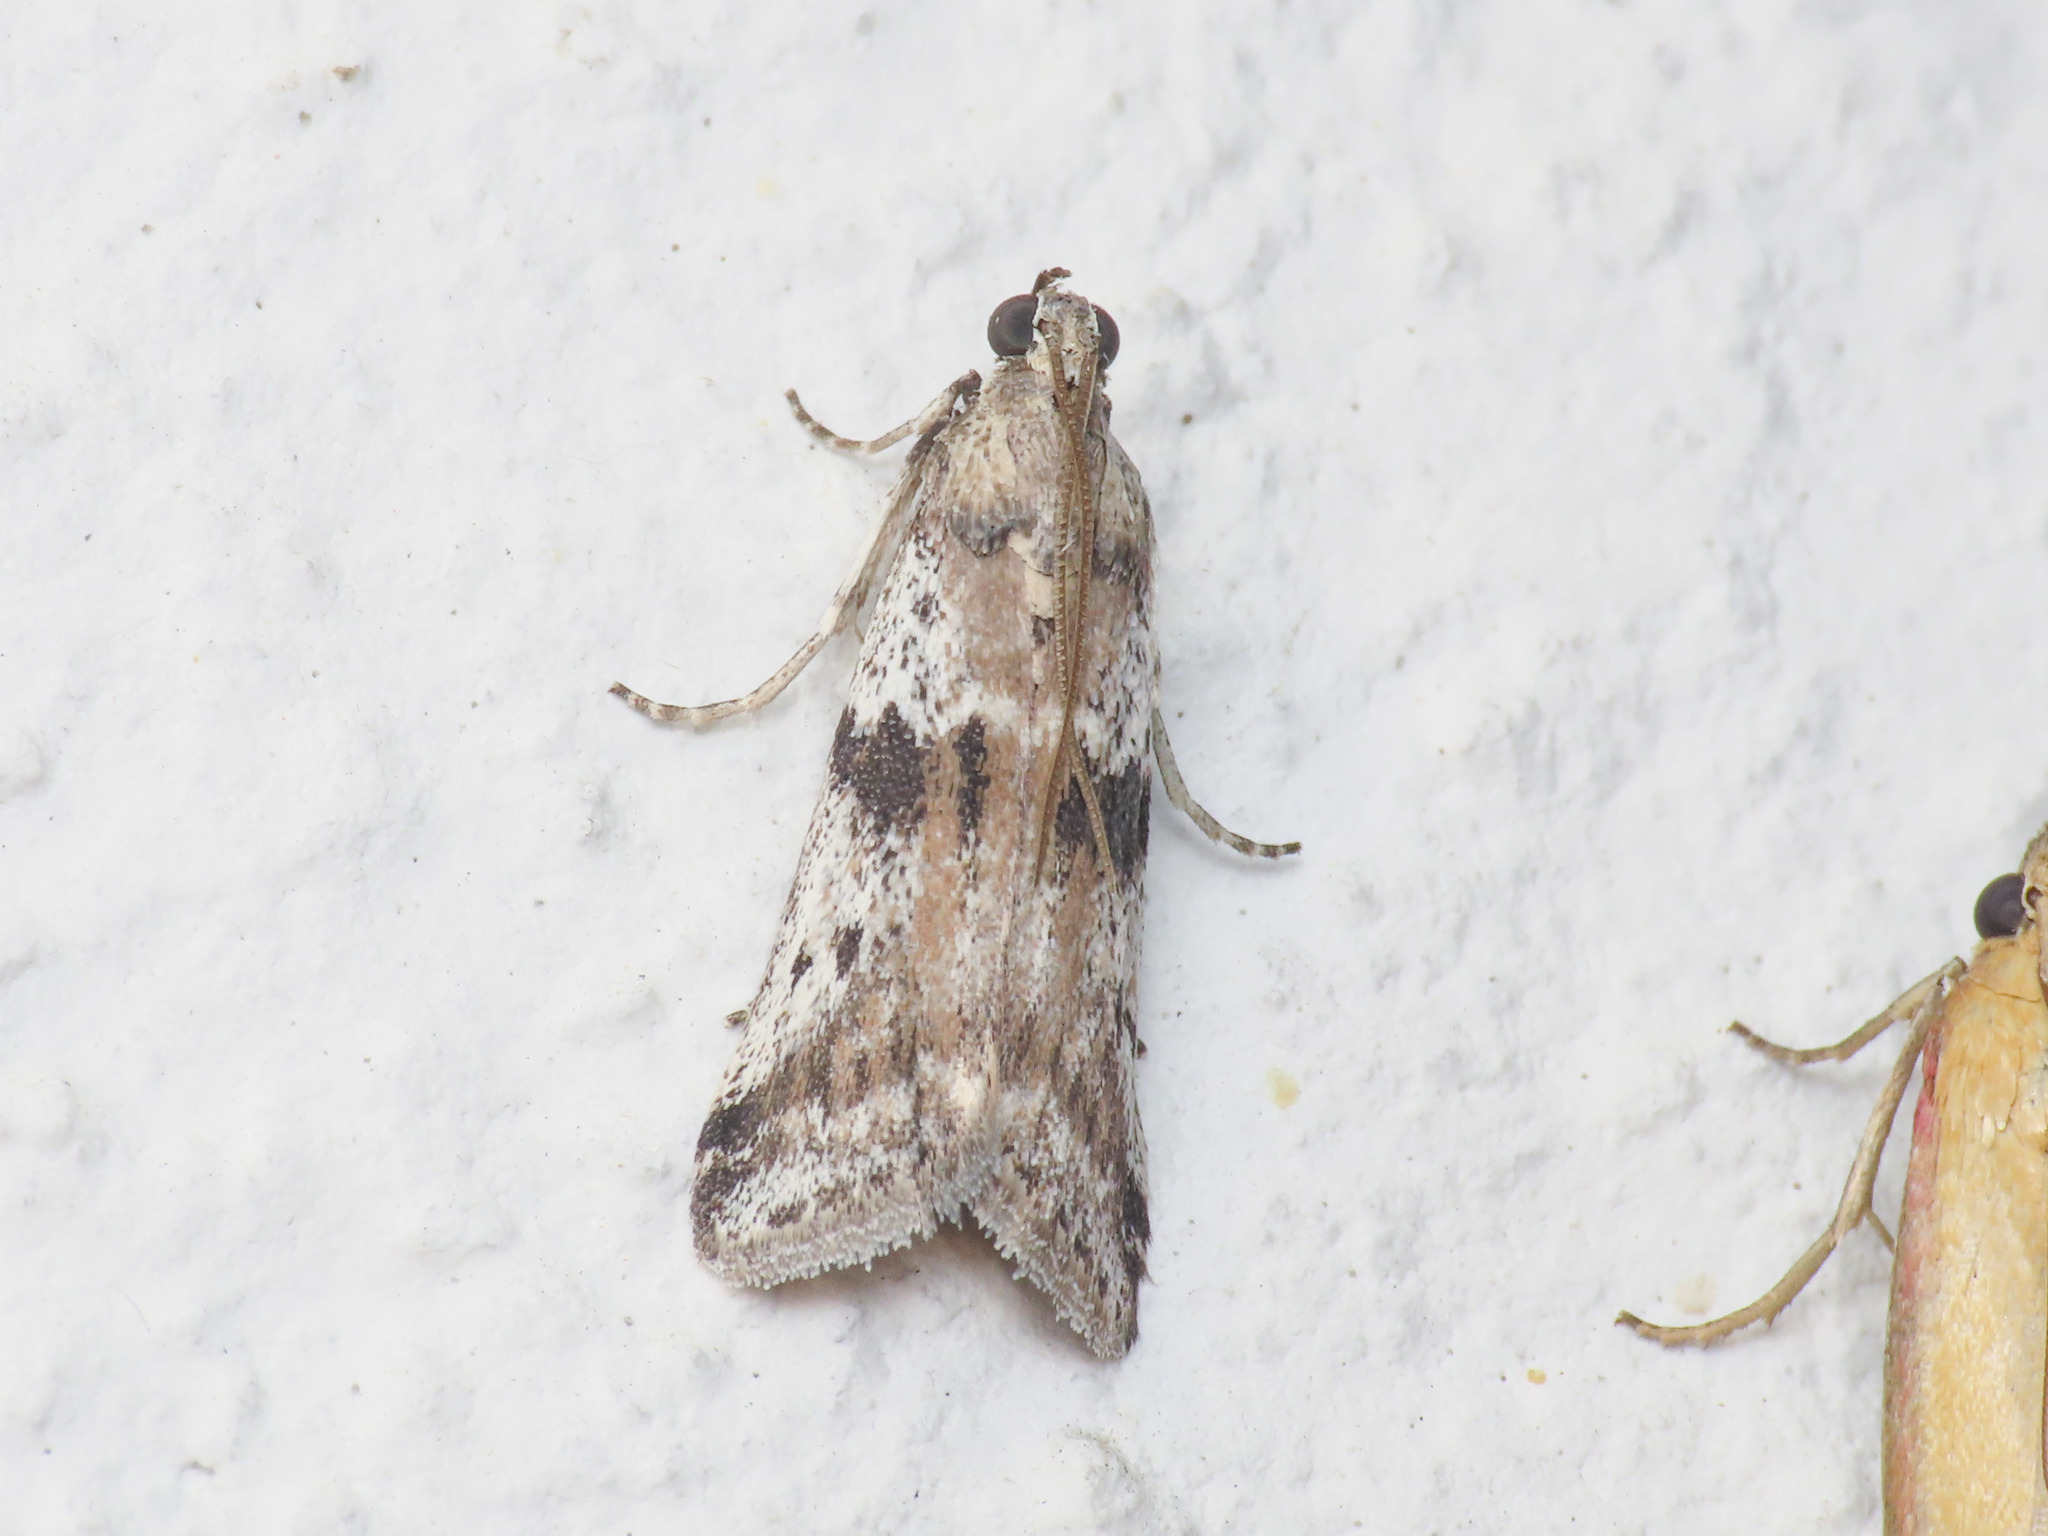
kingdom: Animalia
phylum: Arthropoda
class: Insecta
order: Lepidoptera
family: Pyralidae
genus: Ephestia
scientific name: Ephestia welseriella
